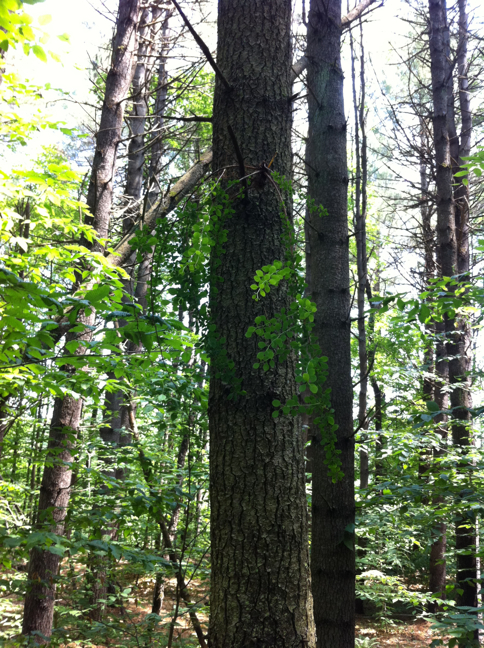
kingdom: Plantae
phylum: Tracheophyta
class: Pinopsida
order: Pinales
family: Pinaceae
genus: Pinus
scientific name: Pinus strobus
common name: Weymouth pine
